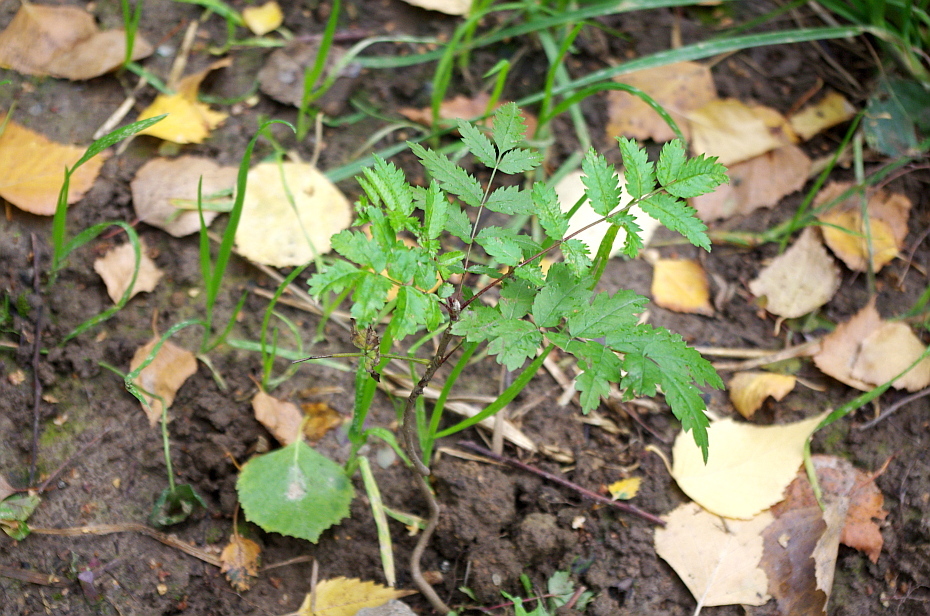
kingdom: Plantae
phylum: Tracheophyta
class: Magnoliopsida
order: Rosales
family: Rosaceae
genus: Sorbus
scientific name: Sorbus aucuparia
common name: Rowan
